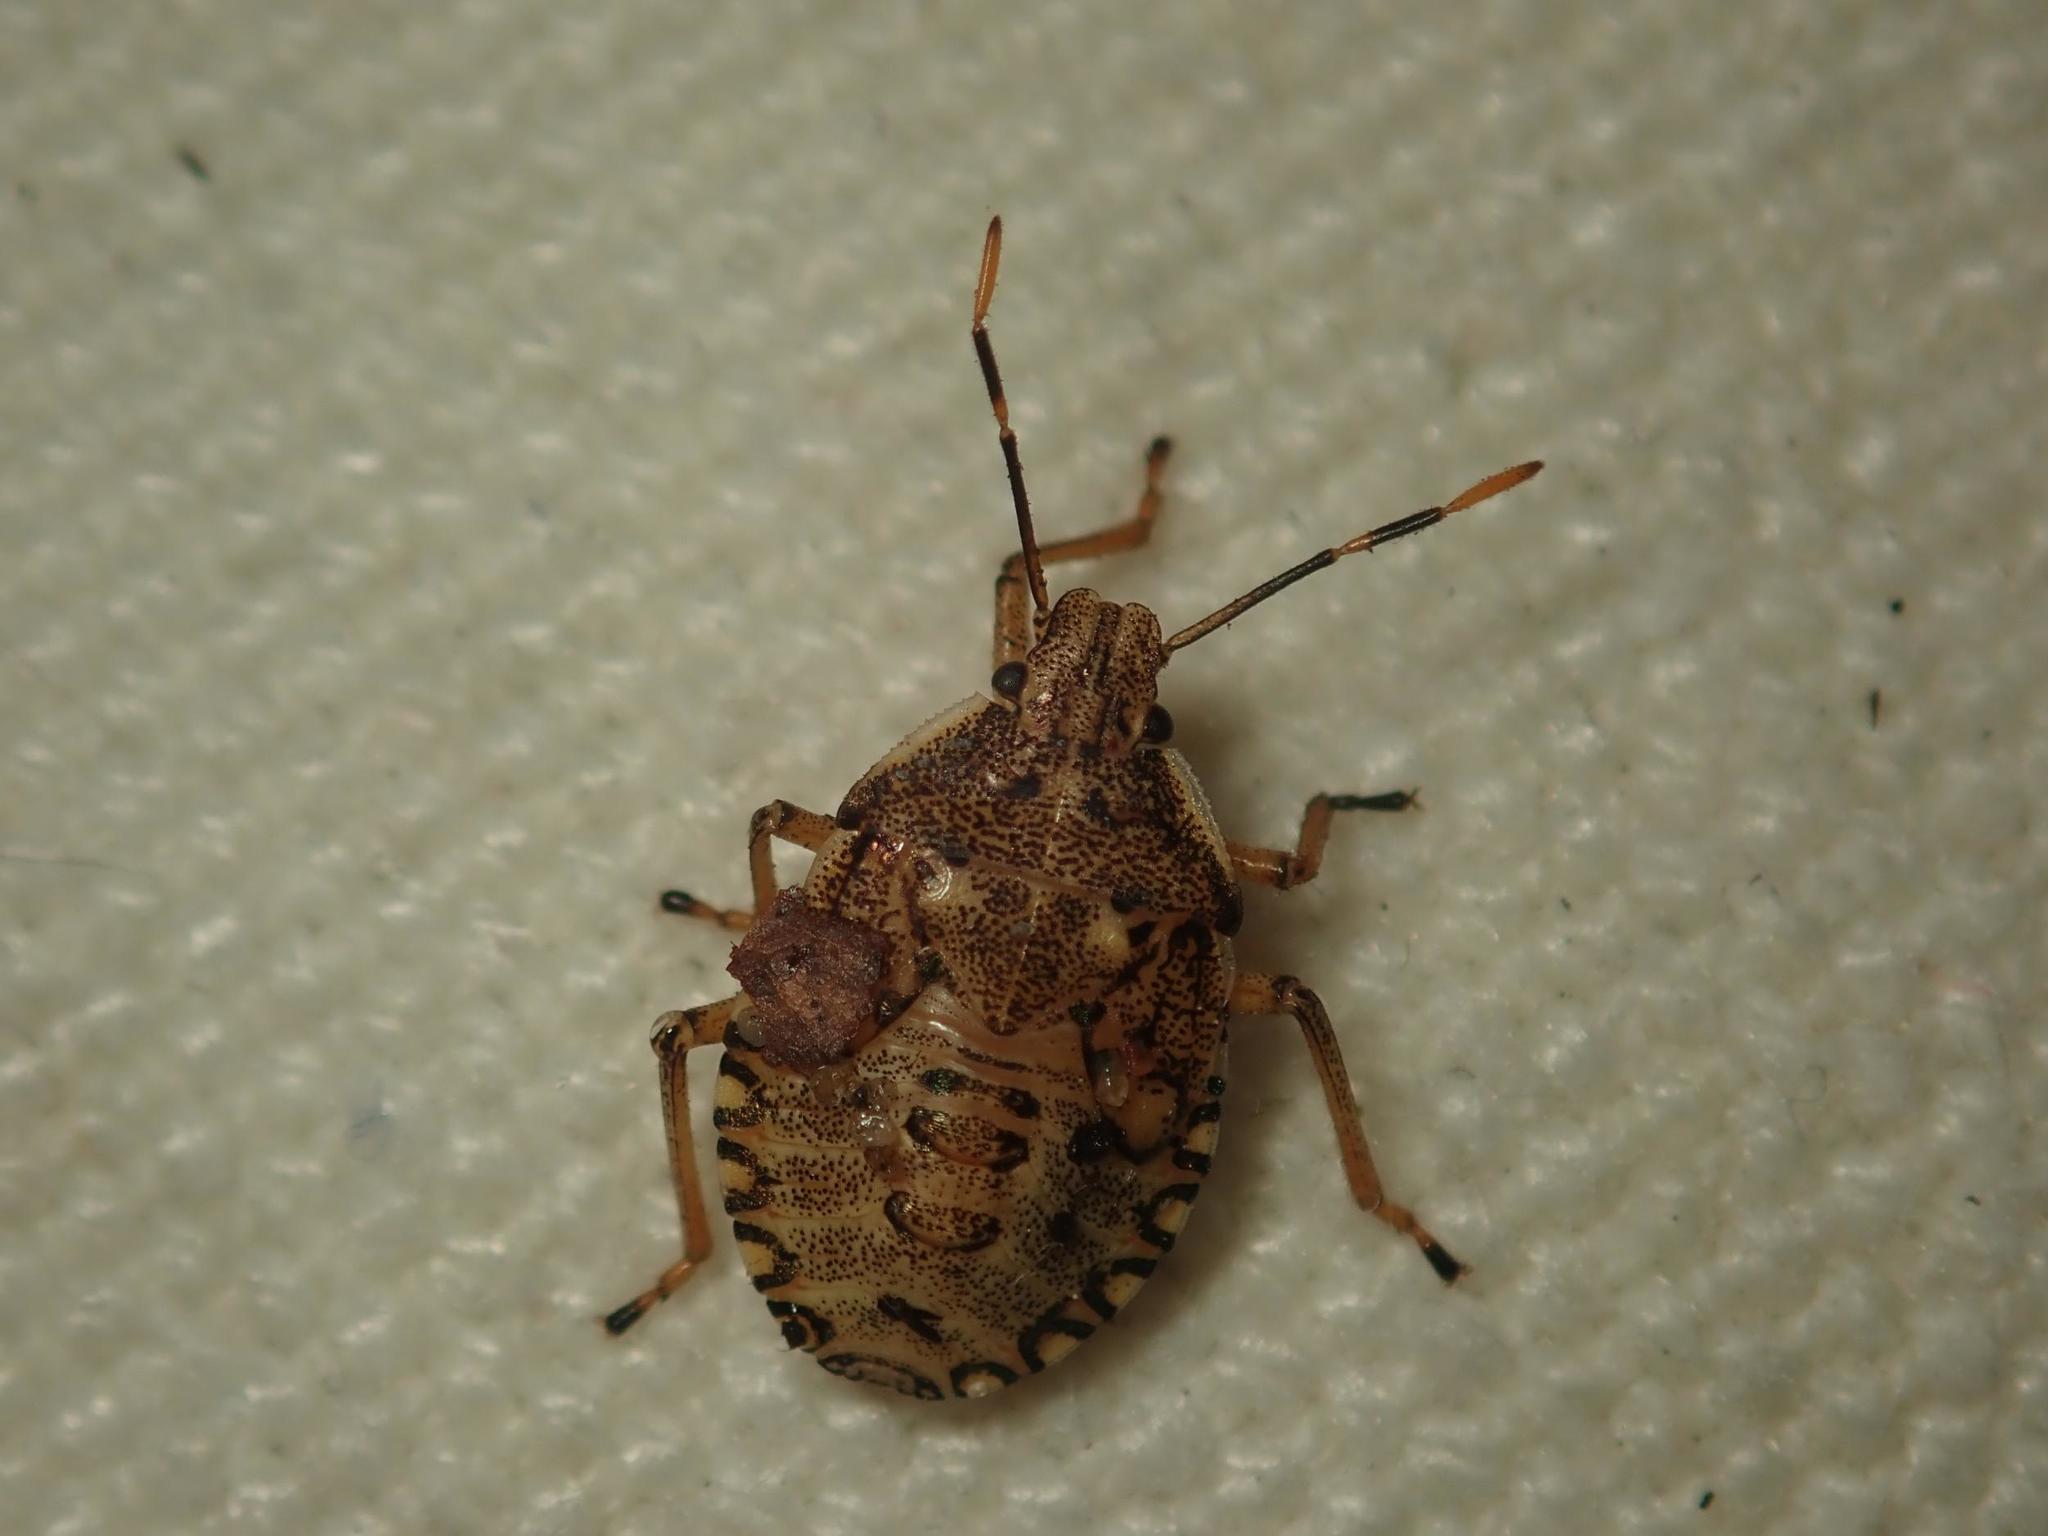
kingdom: Animalia
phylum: Arthropoda
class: Insecta
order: Hemiptera
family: Pentatomidae
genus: Arma
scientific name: Arma custos
